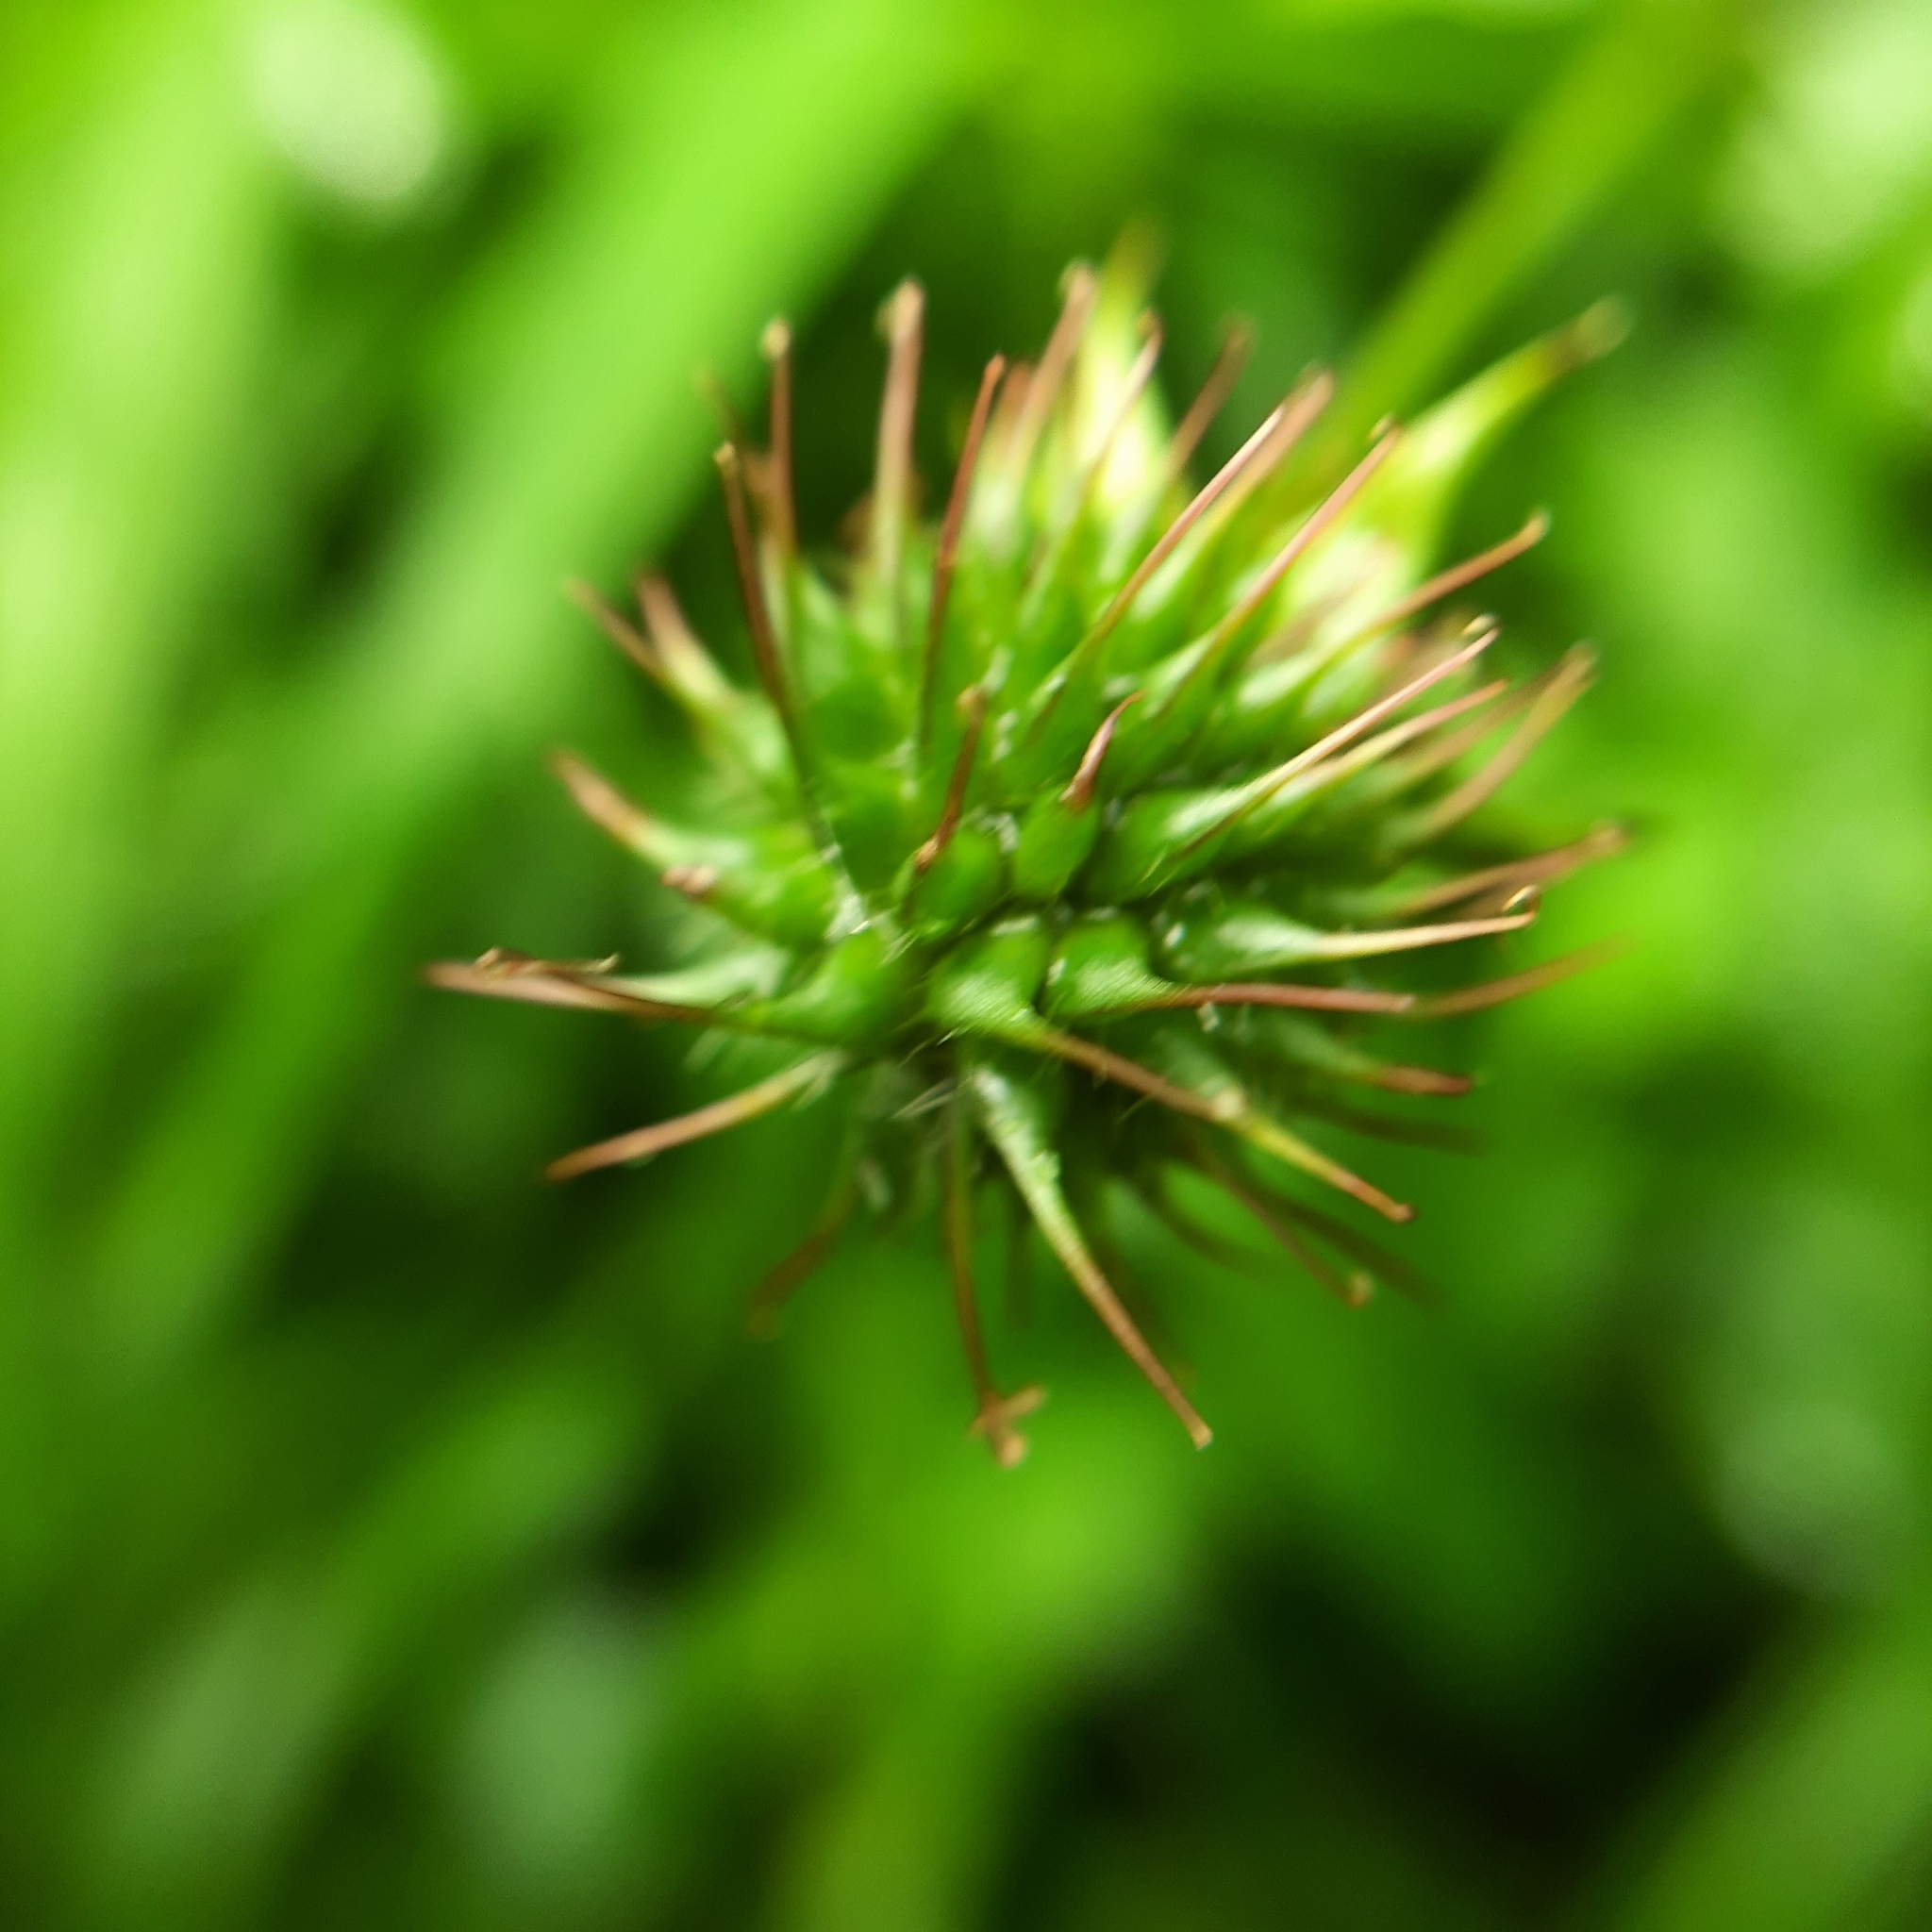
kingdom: Plantae
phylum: Tracheophyta
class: Magnoliopsida
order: Rosales
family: Rosaceae
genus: Geum
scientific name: Geum urbanum
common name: Wood avens
